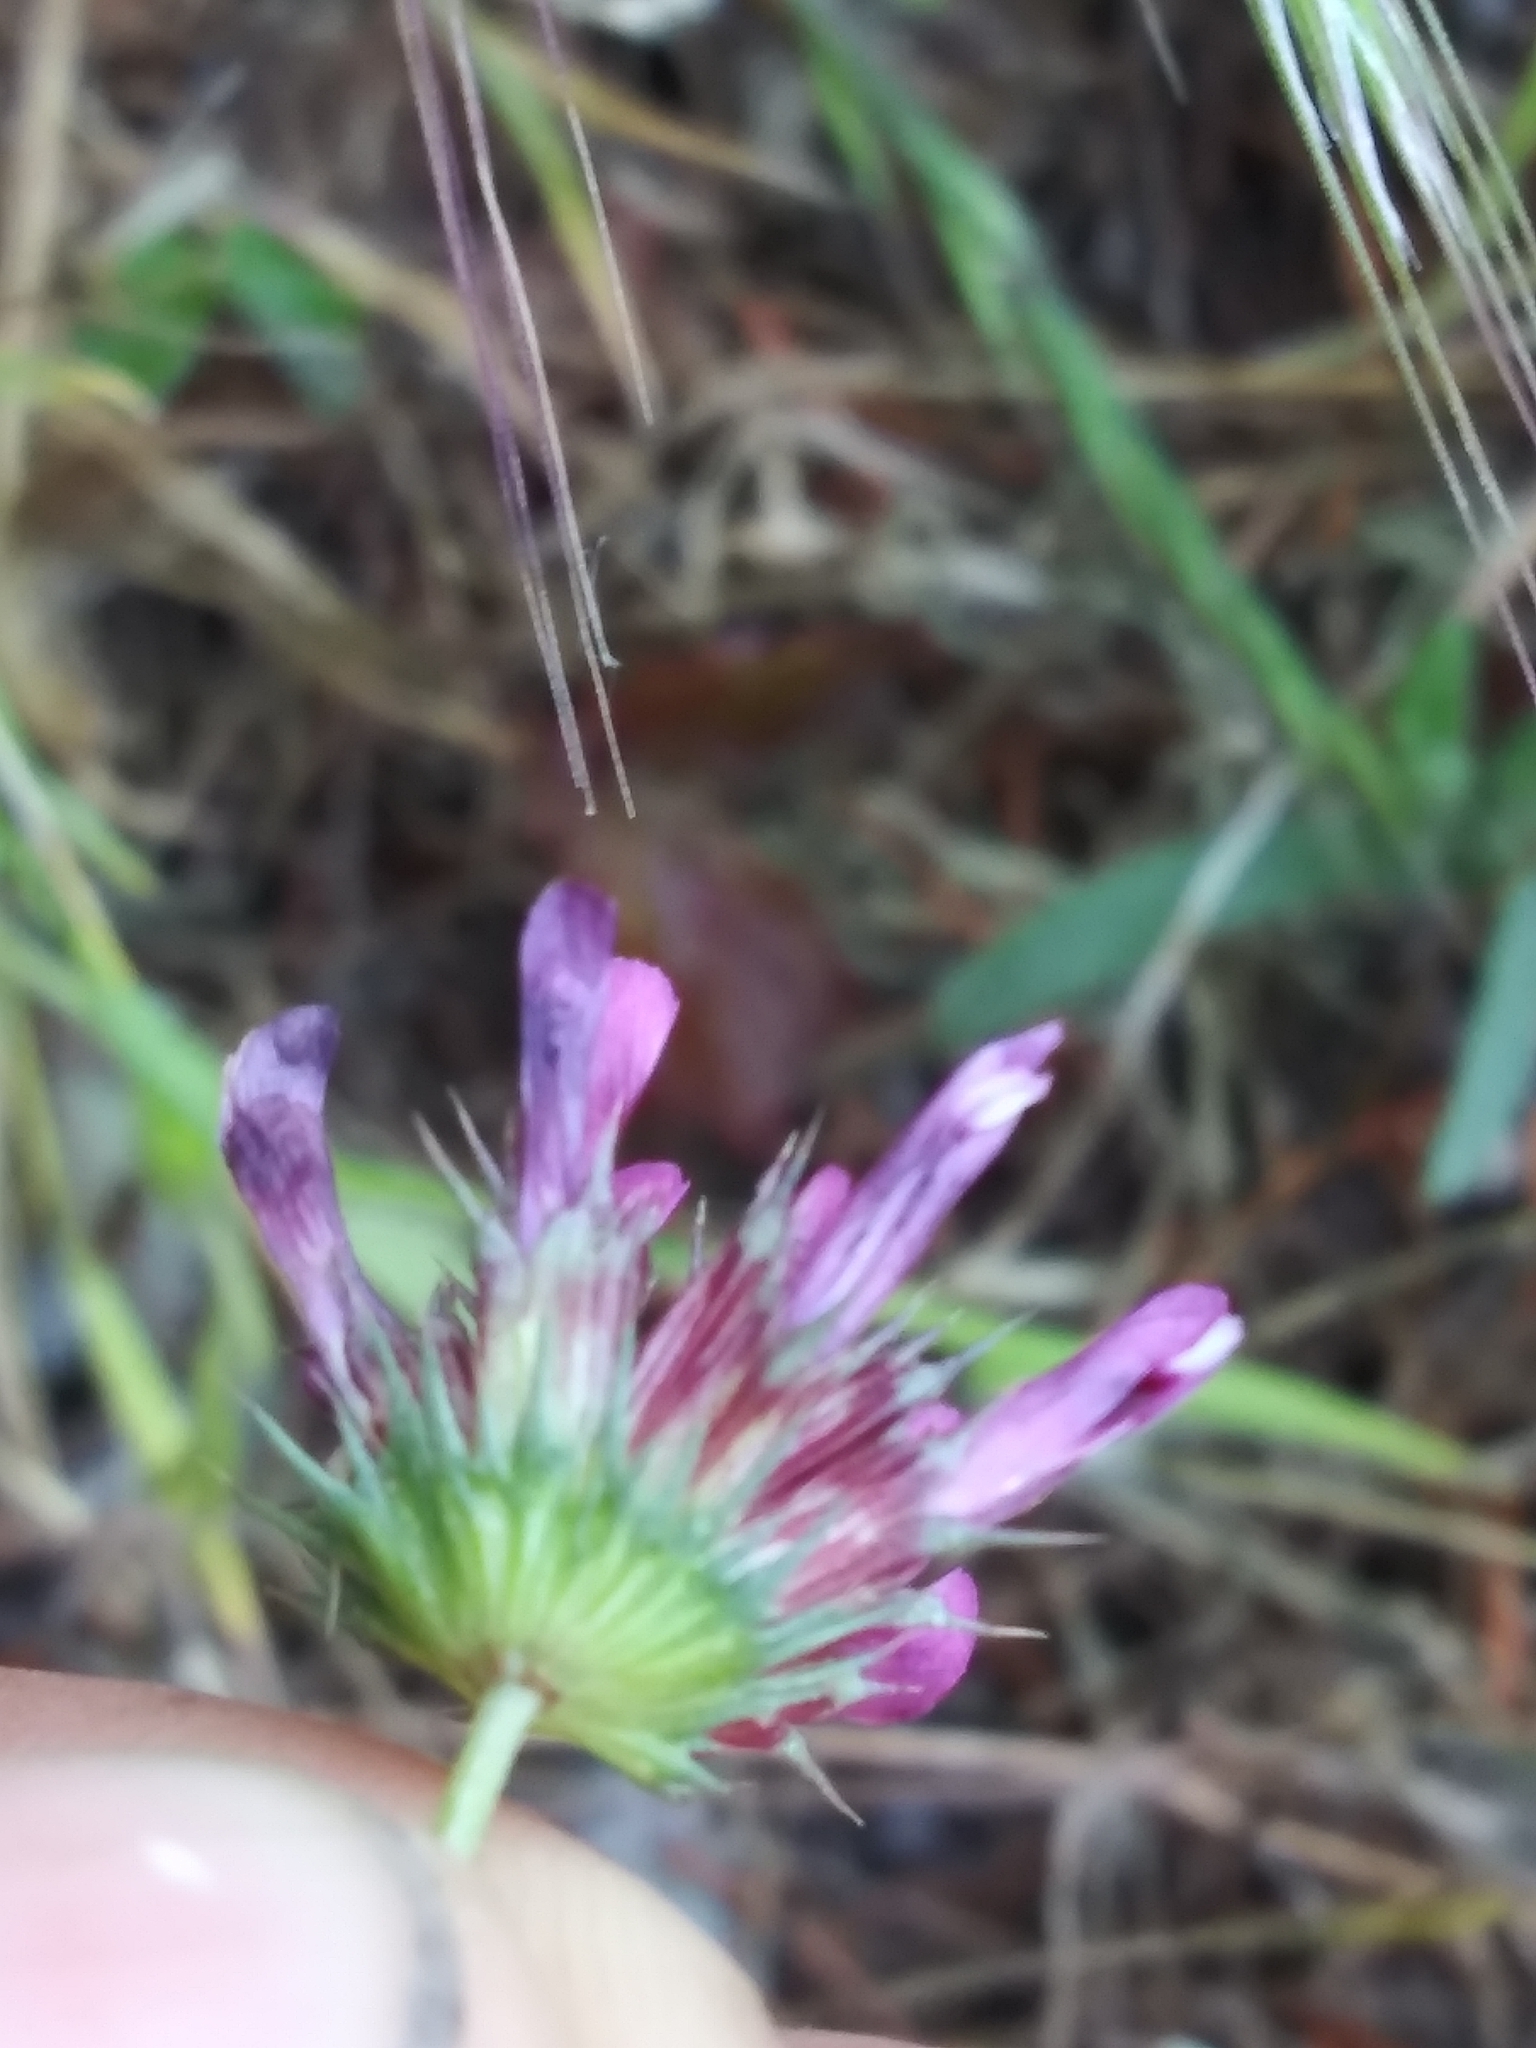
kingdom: Plantae
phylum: Tracheophyta
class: Magnoliopsida
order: Fabales
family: Fabaceae
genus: Trifolium
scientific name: Trifolium willdenovii
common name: Tomcat clover
